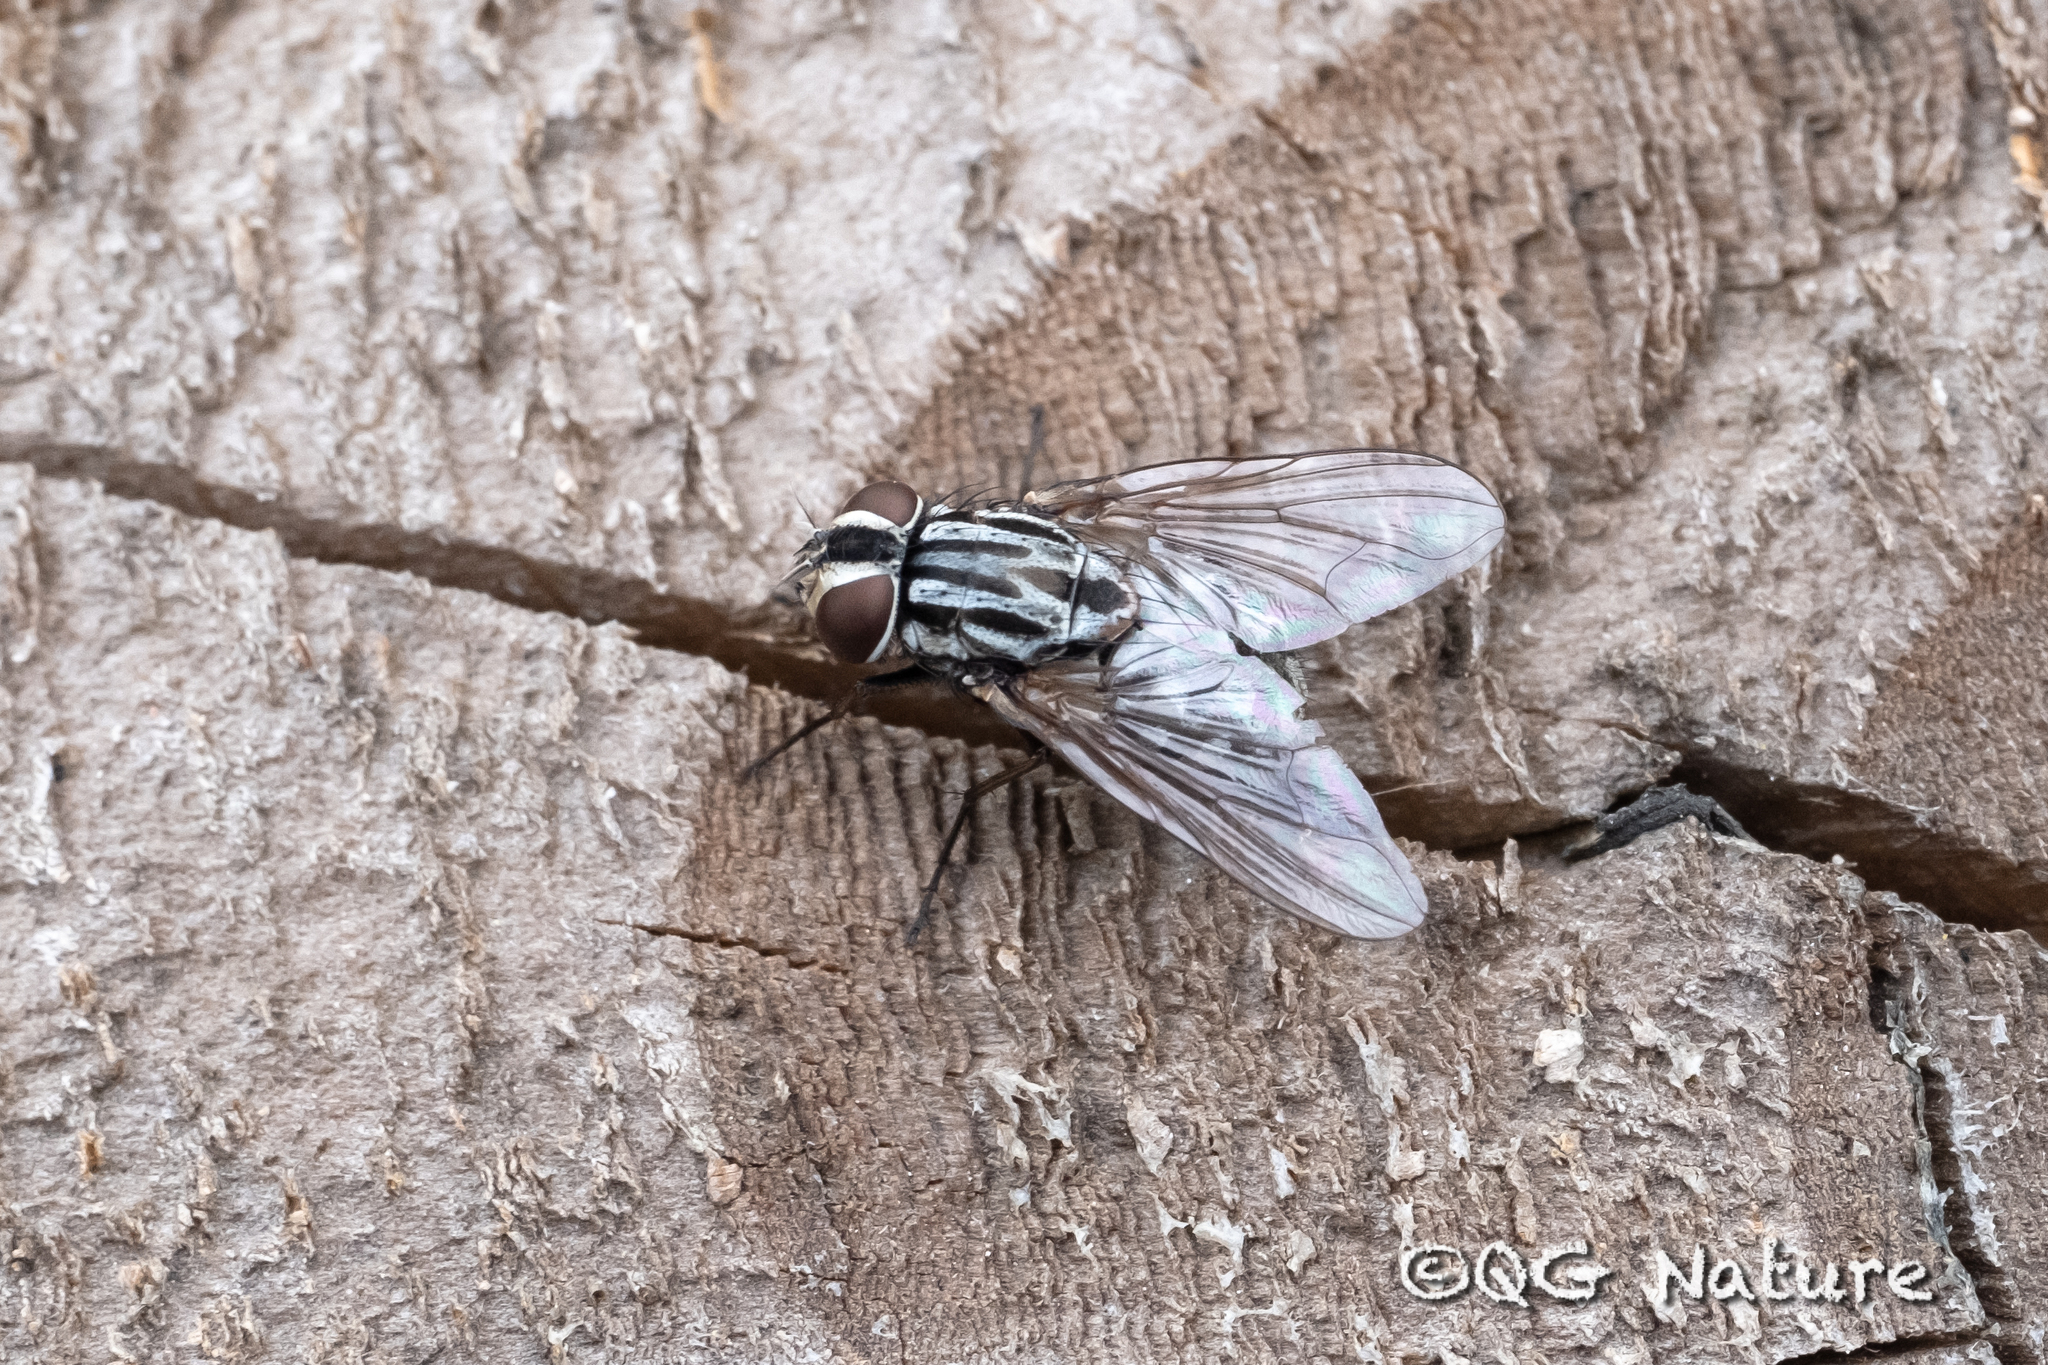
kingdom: Animalia
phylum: Arthropoda
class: Insecta
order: Diptera
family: Muscidae
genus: Graphomya
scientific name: Graphomya maculata
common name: Muscid fly
